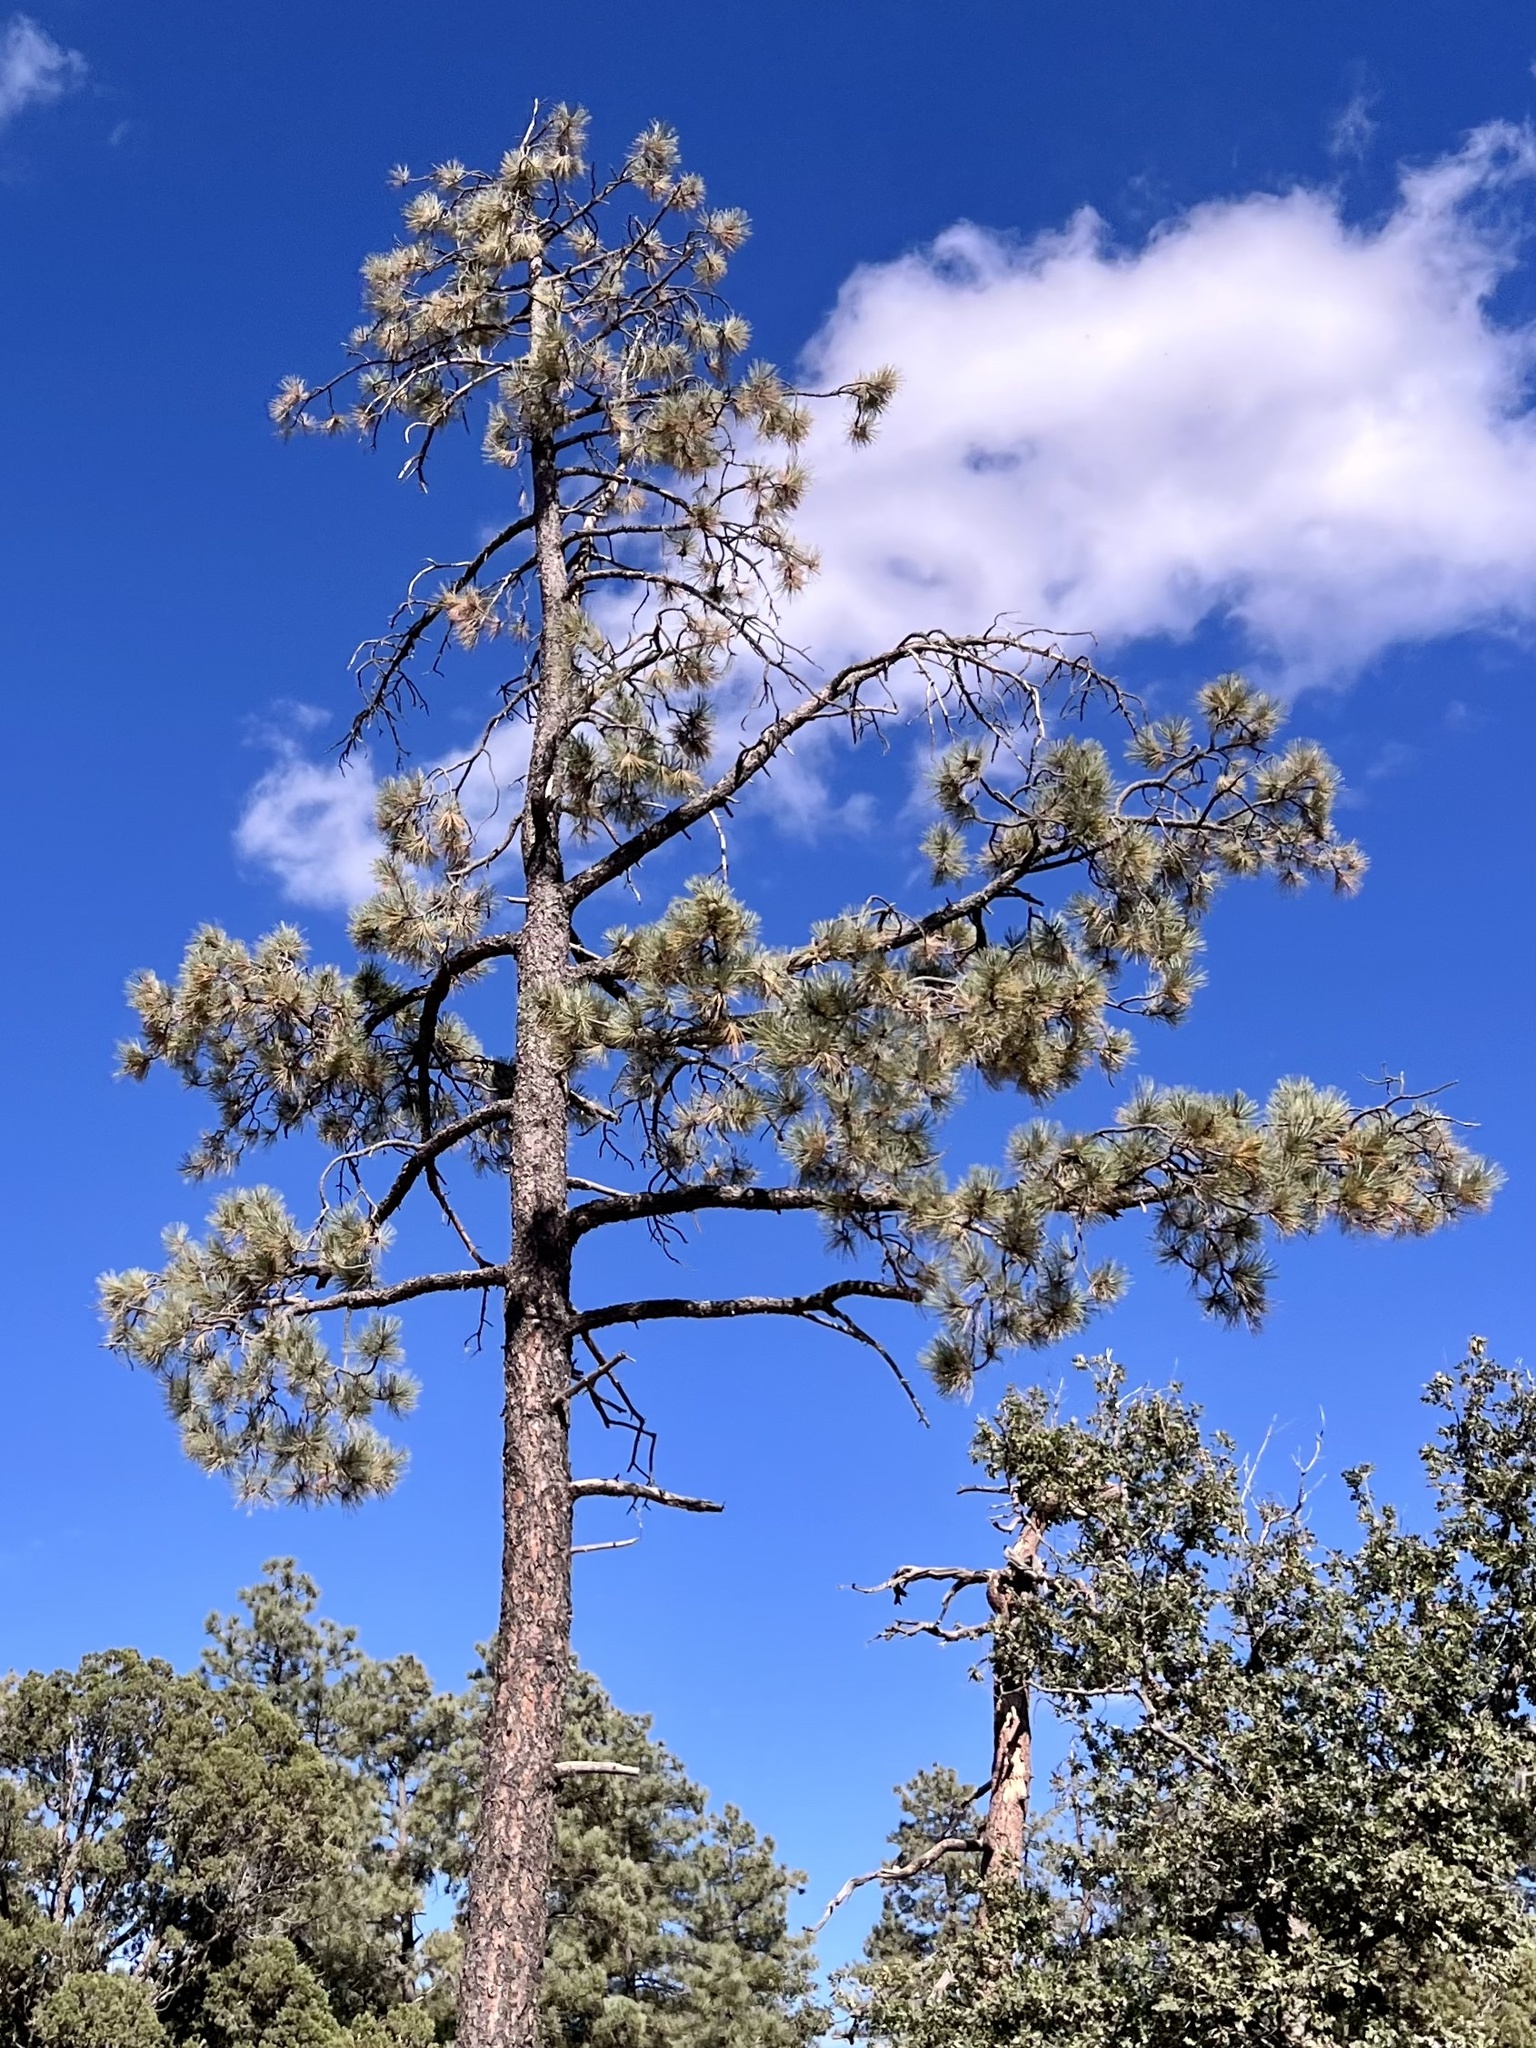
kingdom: Plantae
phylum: Tracheophyta
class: Pinopsida
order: Pinales
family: Pinaceae
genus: Pinus
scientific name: Pinus ponderosa
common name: Western yellow-pine
